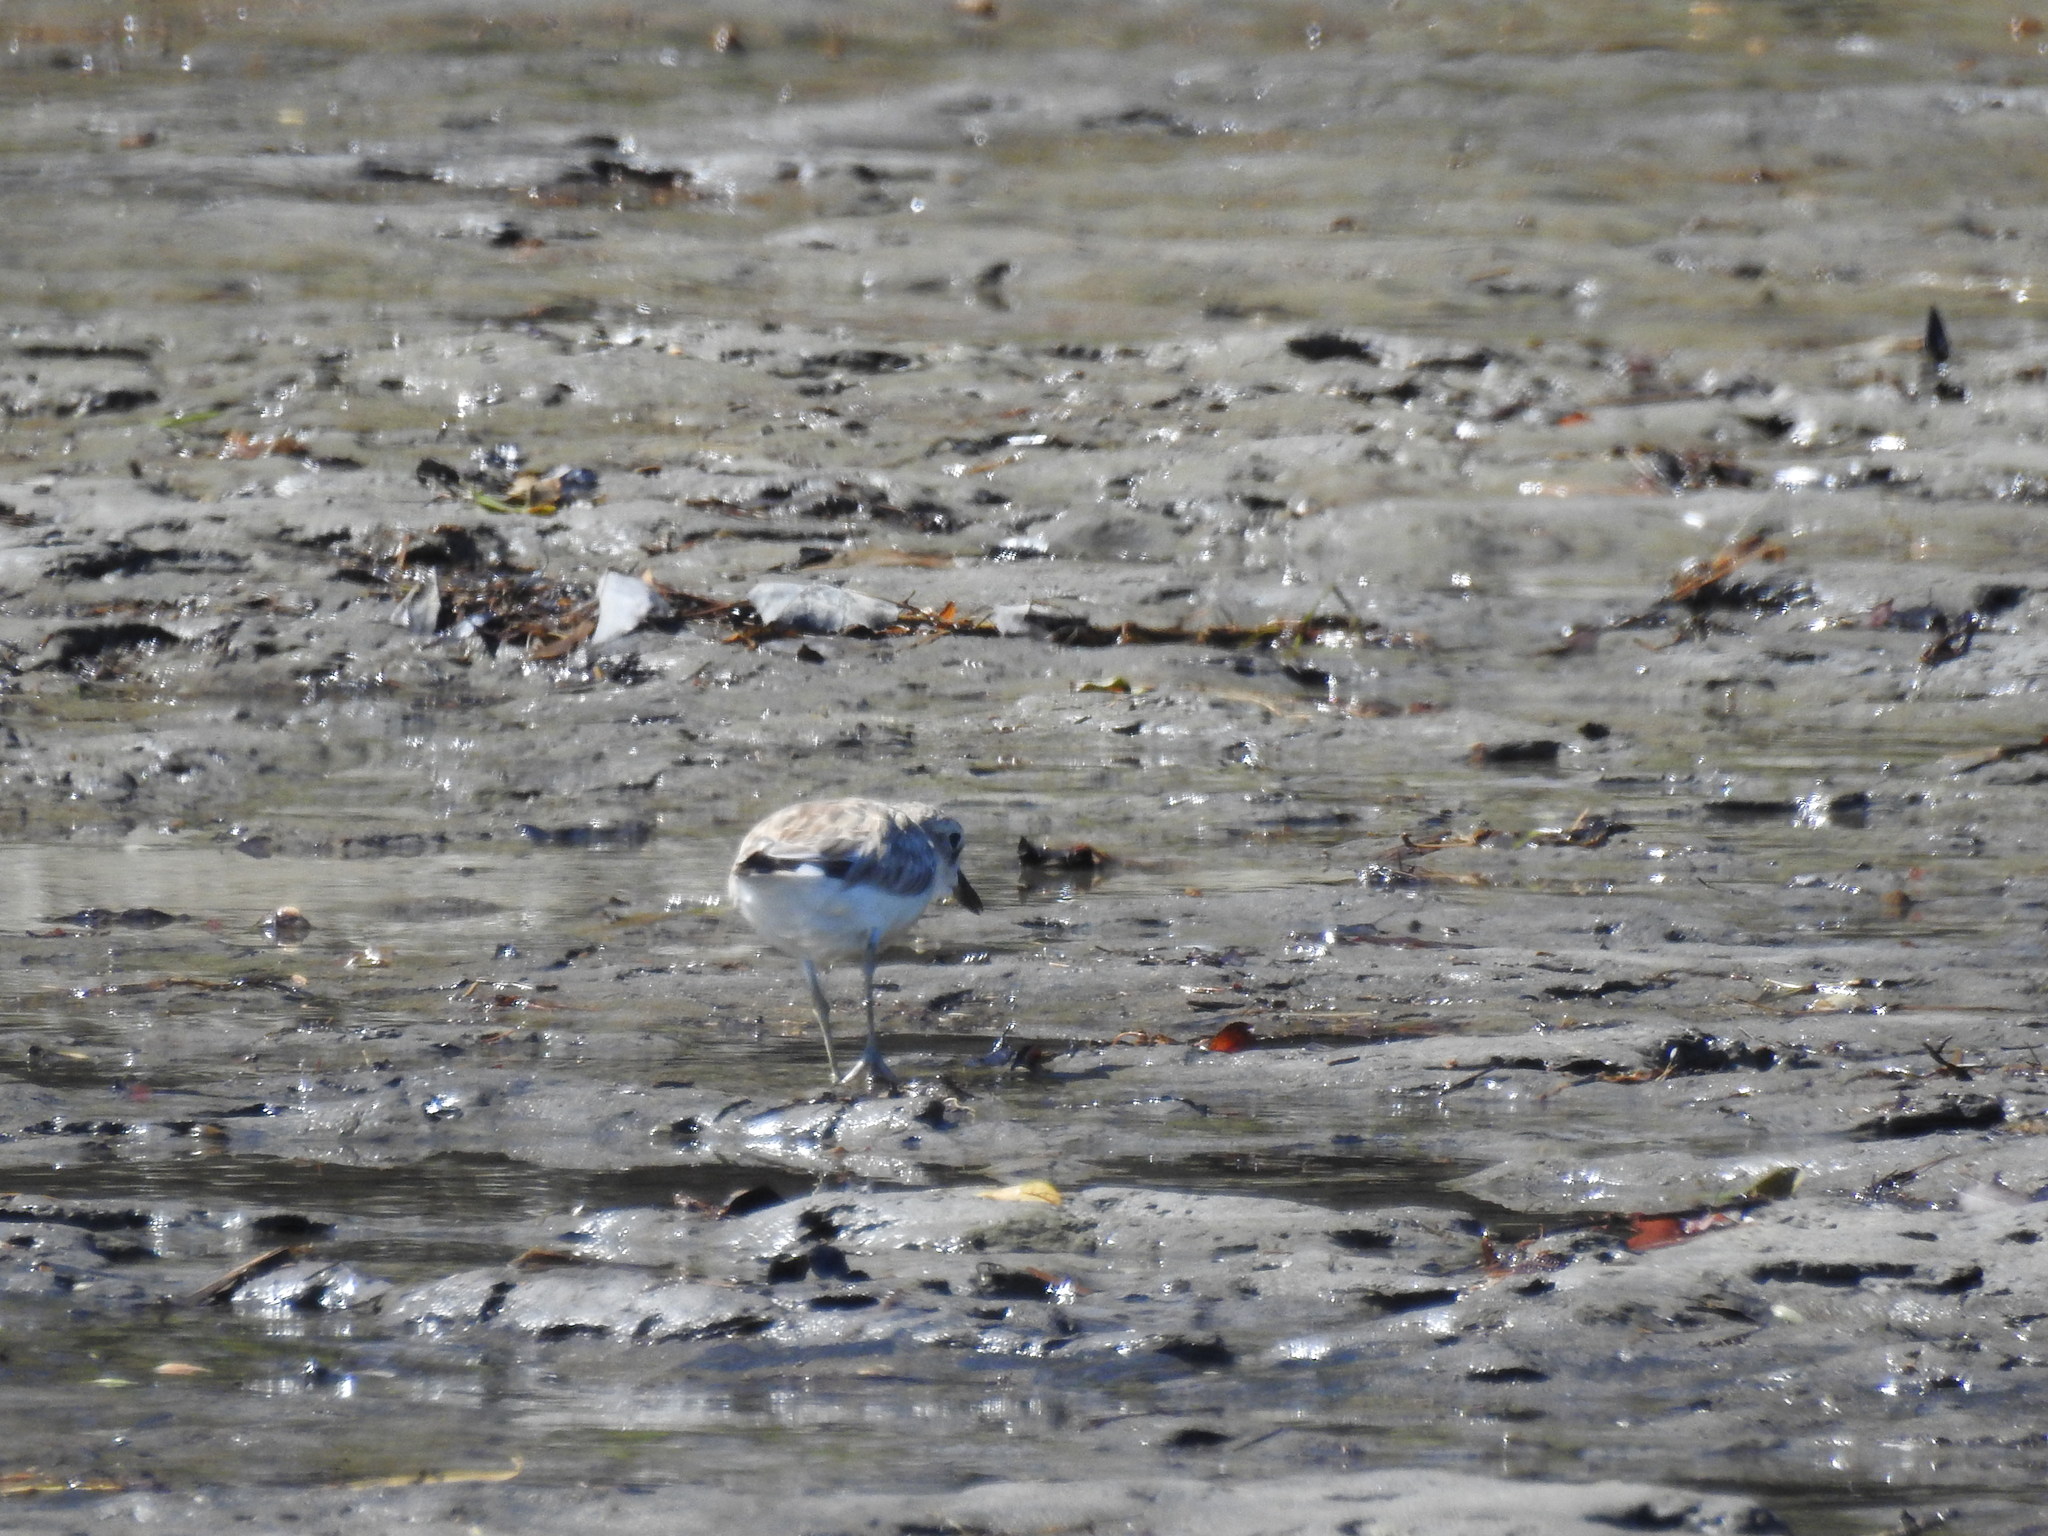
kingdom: Animalia
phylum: Chordata
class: Aves
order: Charadriiformes
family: Charadriidae
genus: Anarhynchus
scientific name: Anarhynchus
